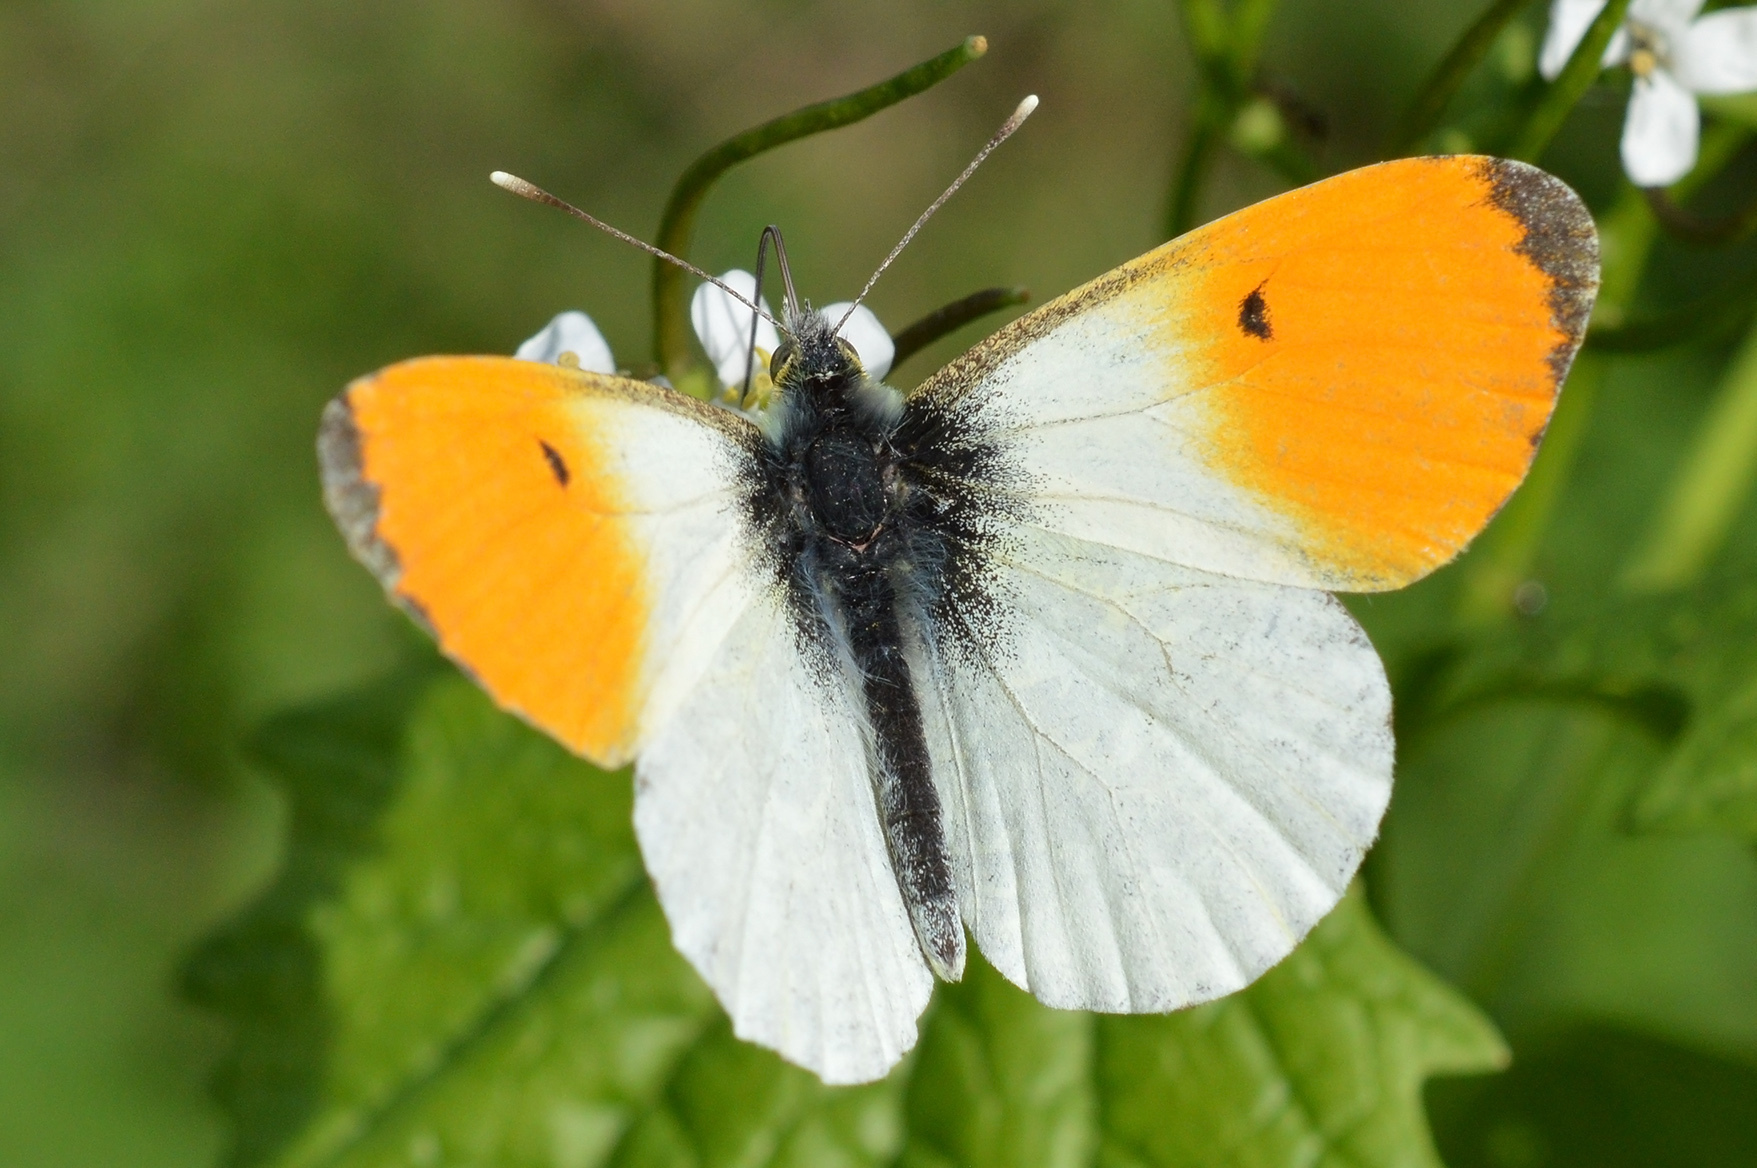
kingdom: Animalia
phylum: Arthropoda
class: Insecta
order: Lepidoptera
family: Pieridae
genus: Anthocharis
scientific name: Anthocharis cardamines
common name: Orange-tip
